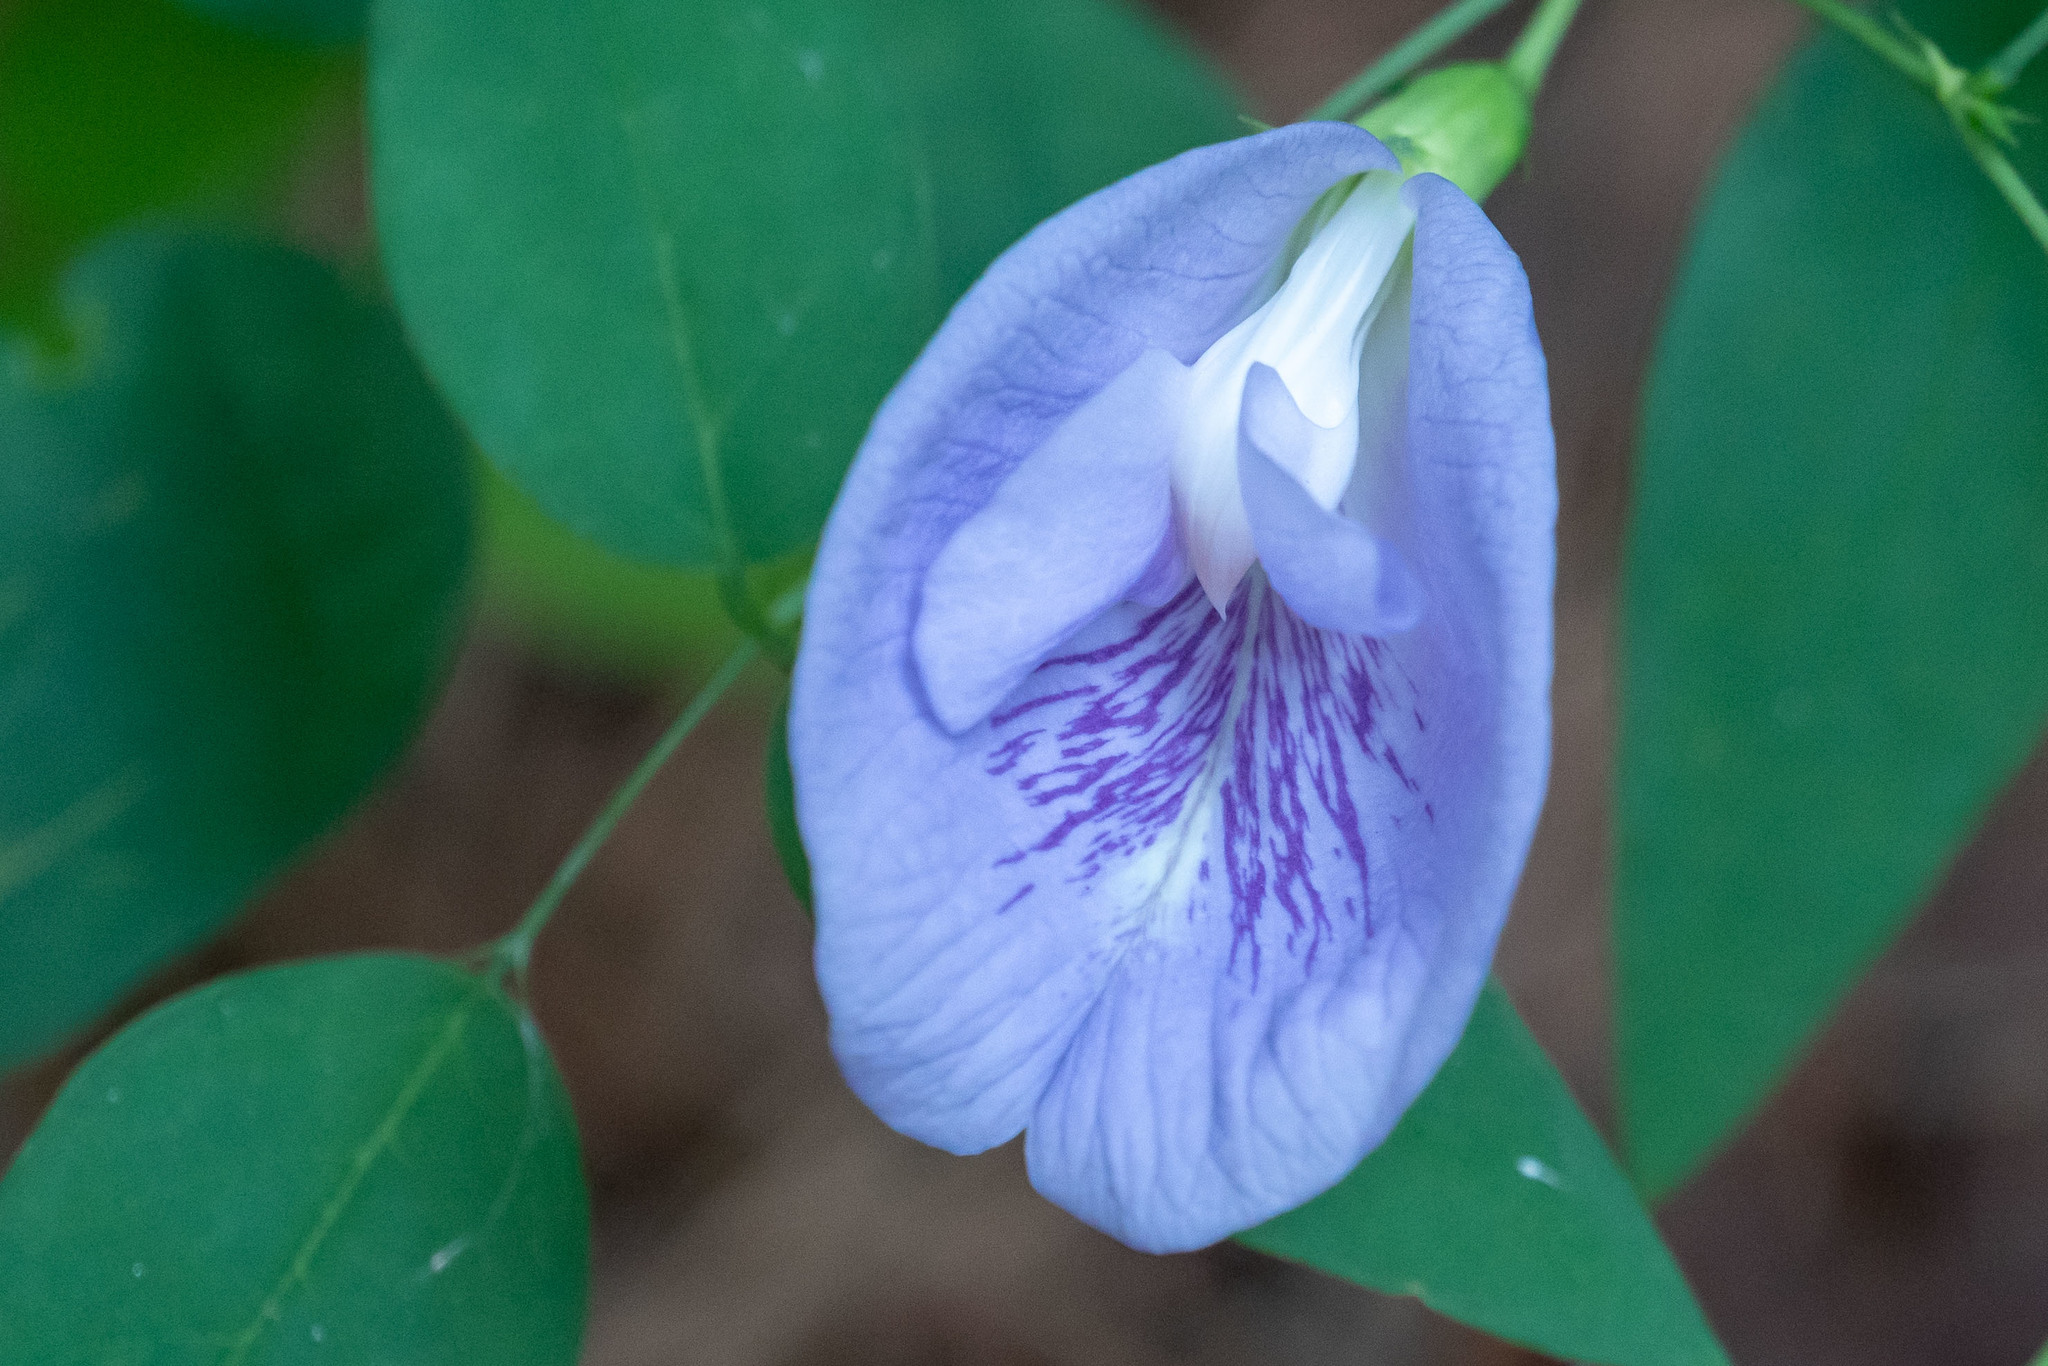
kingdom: Plantae
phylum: Tracheophyta
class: Magnoliopsida
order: Fabales
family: Fabaceae
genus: Clitoria
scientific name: Clitoria mariana
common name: Butterfly-pea
